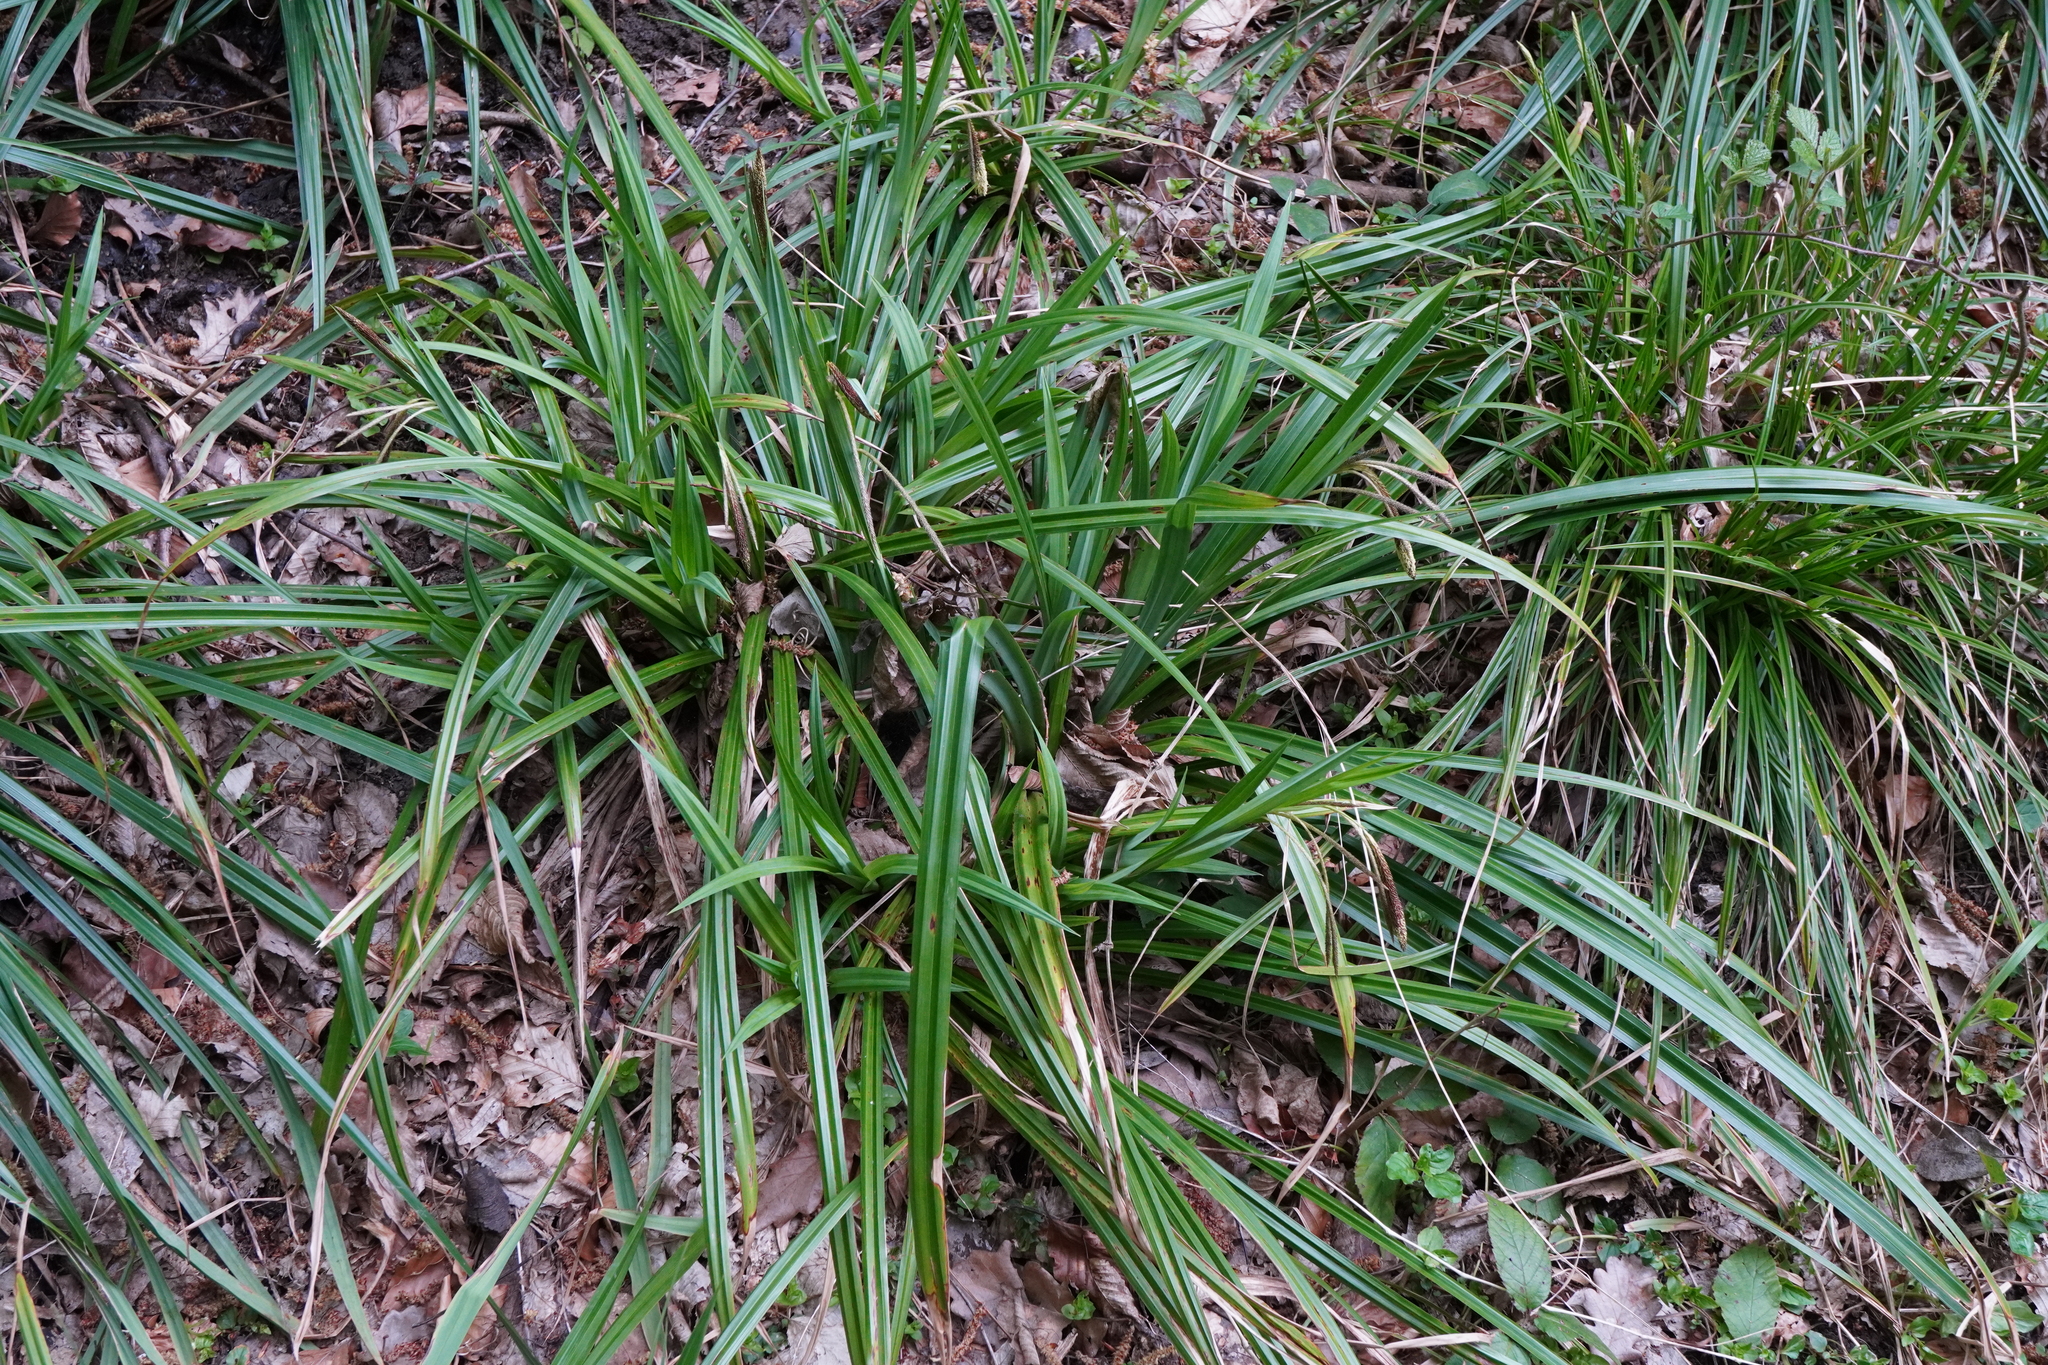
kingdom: Plantae
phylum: Tracheophyta
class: Liliopsida
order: Poales
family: Cyperaceae
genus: Carex
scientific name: Carex agastachys
